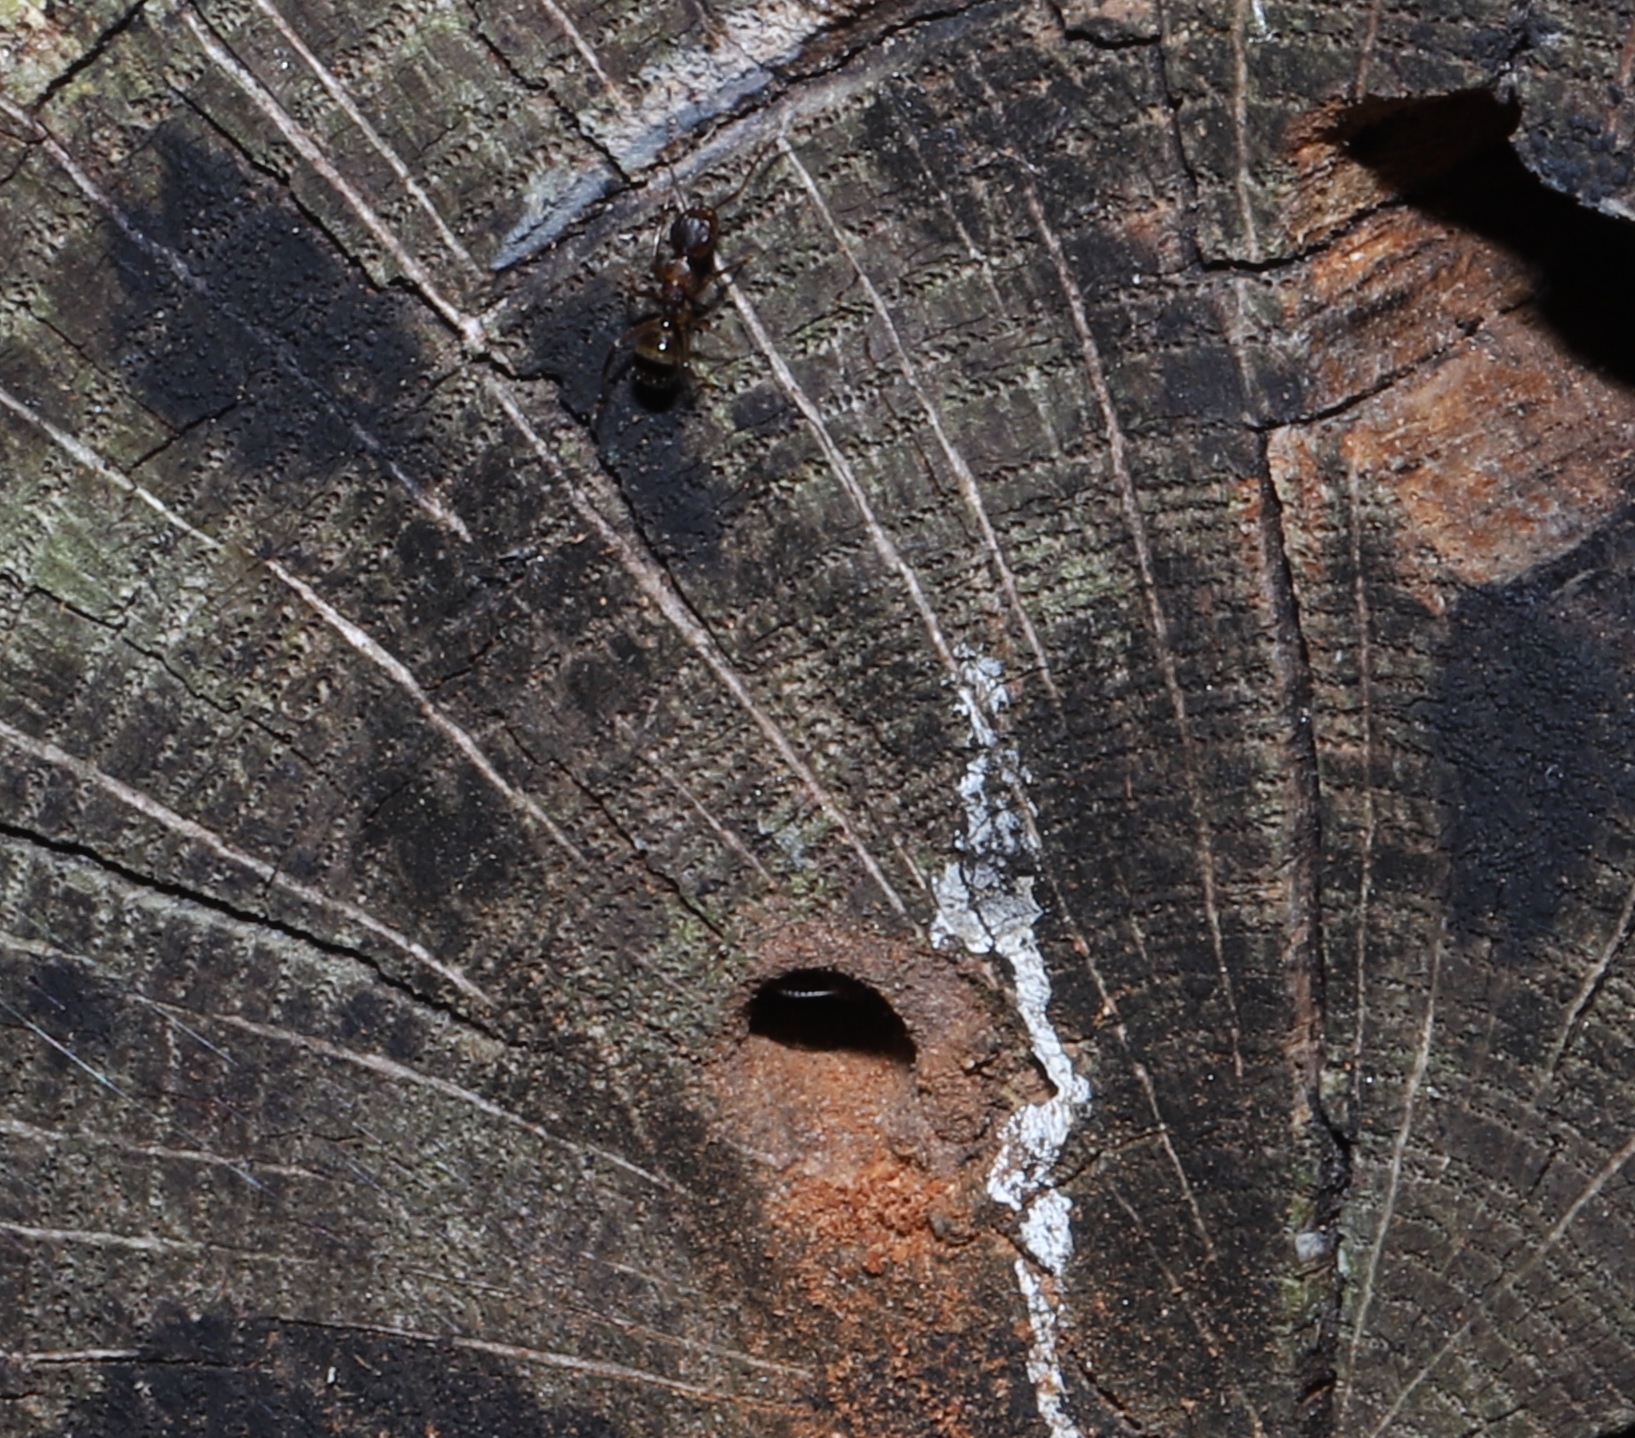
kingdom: Animalia
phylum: Arthropoda
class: Insecta
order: Hymenoptera
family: Formicidae
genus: Camponotus
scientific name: Camponotus subbarbatus
